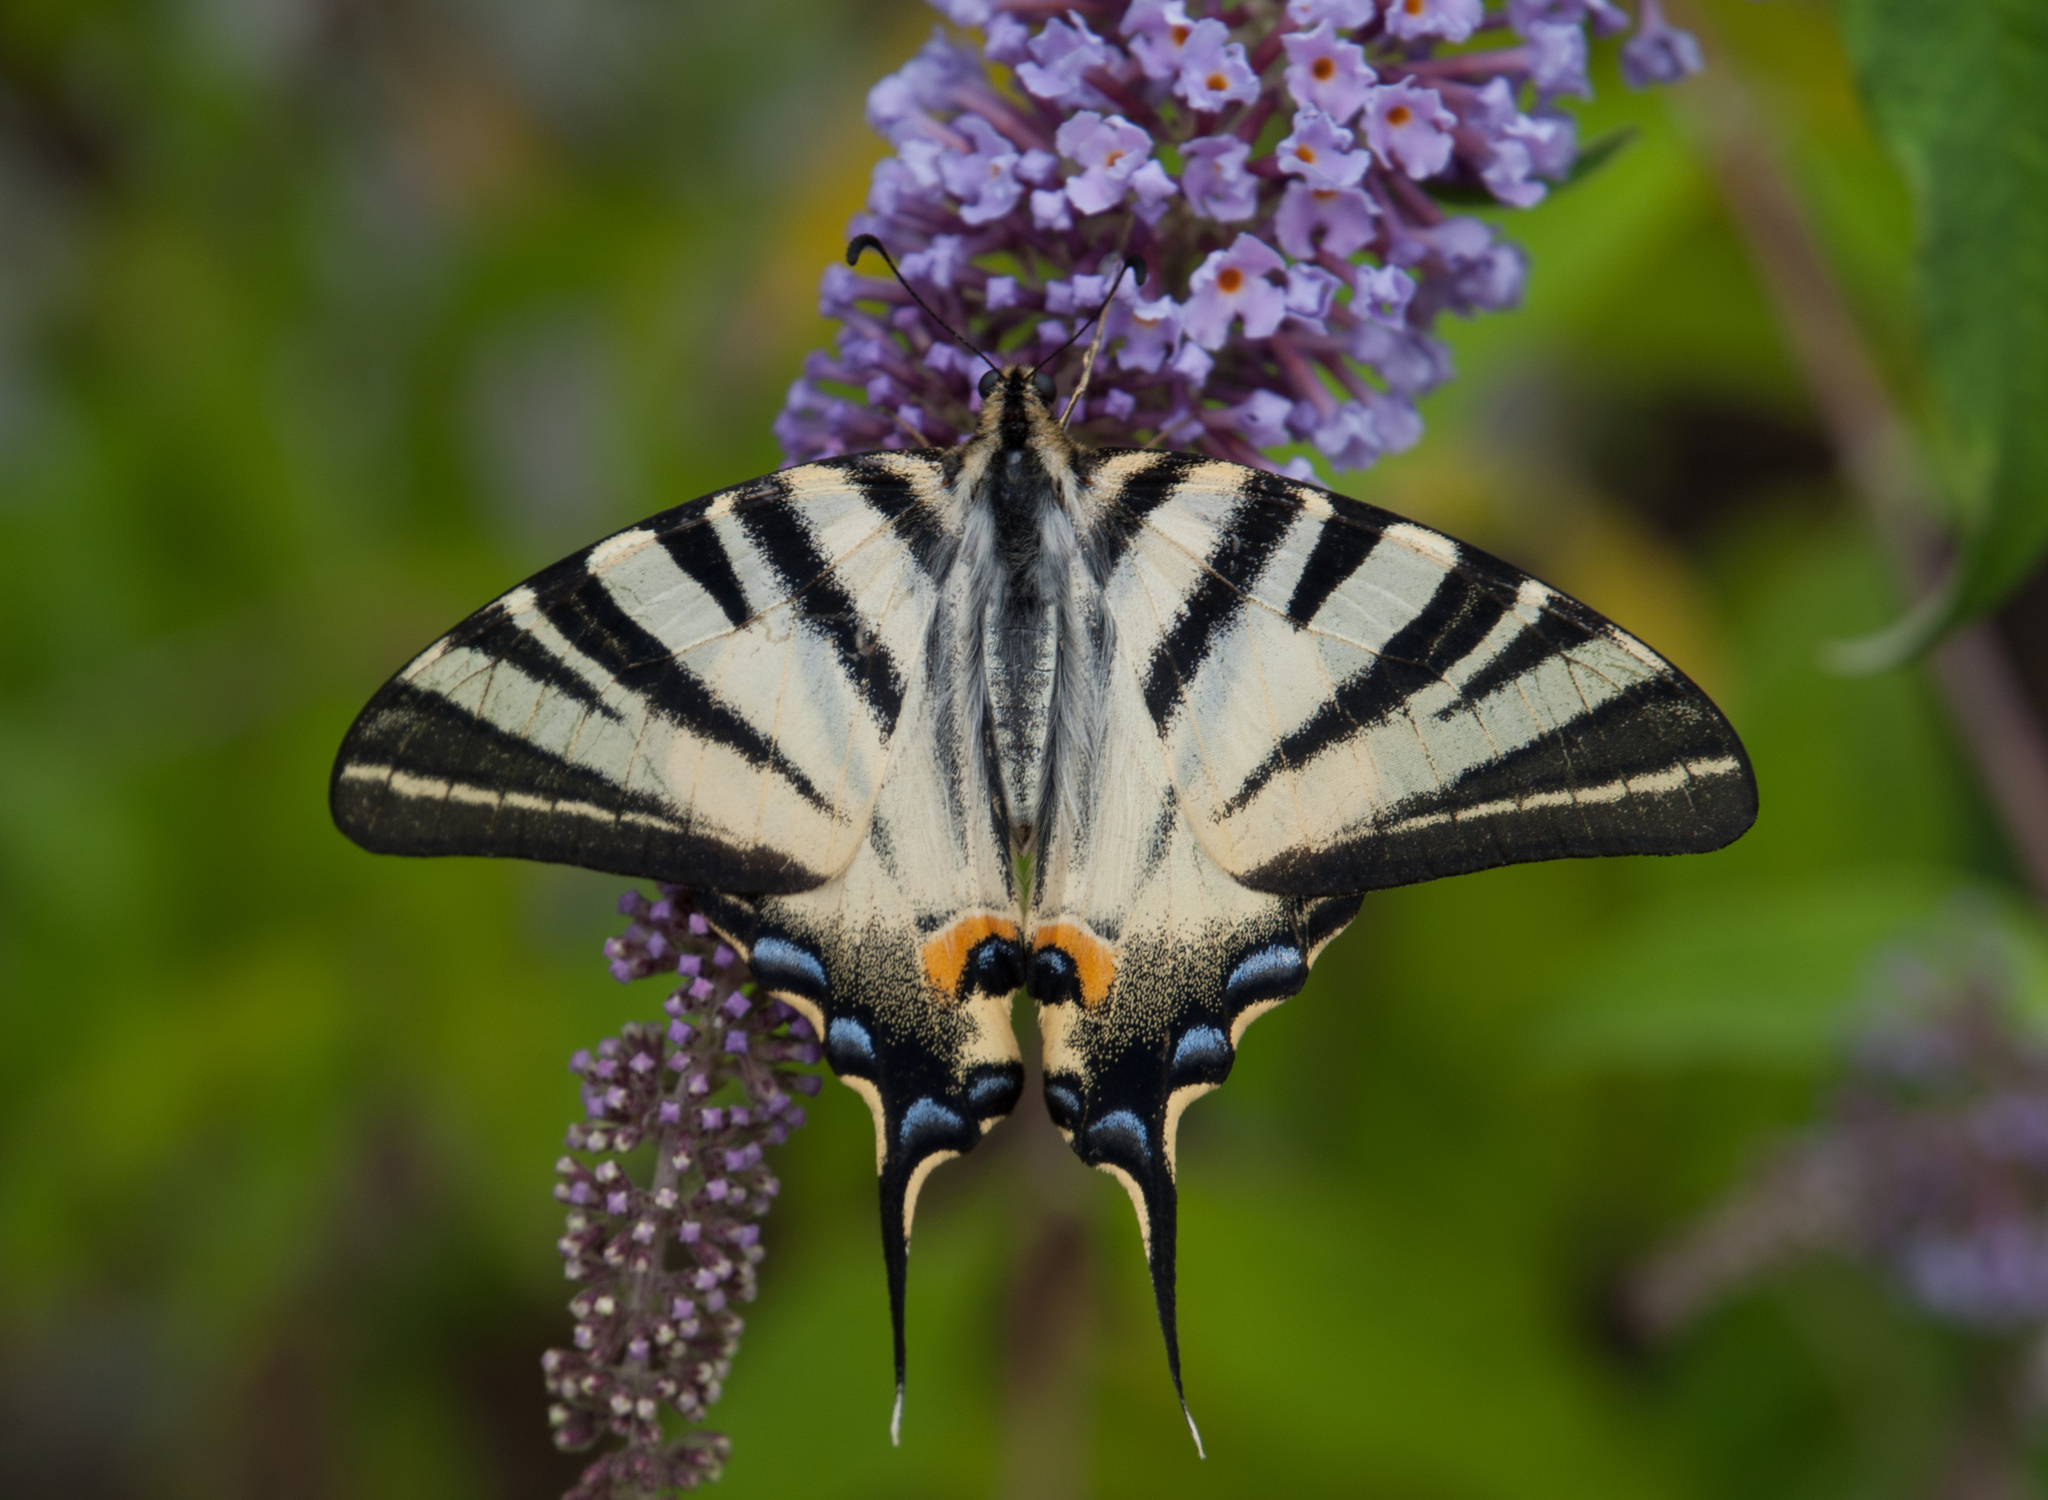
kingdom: Animalia
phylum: Arthropoda
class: Insecta
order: Lepidoptera
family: Papilionidae
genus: Iphiclides
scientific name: Iphiclides podalirius
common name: Scarce swallowtail
